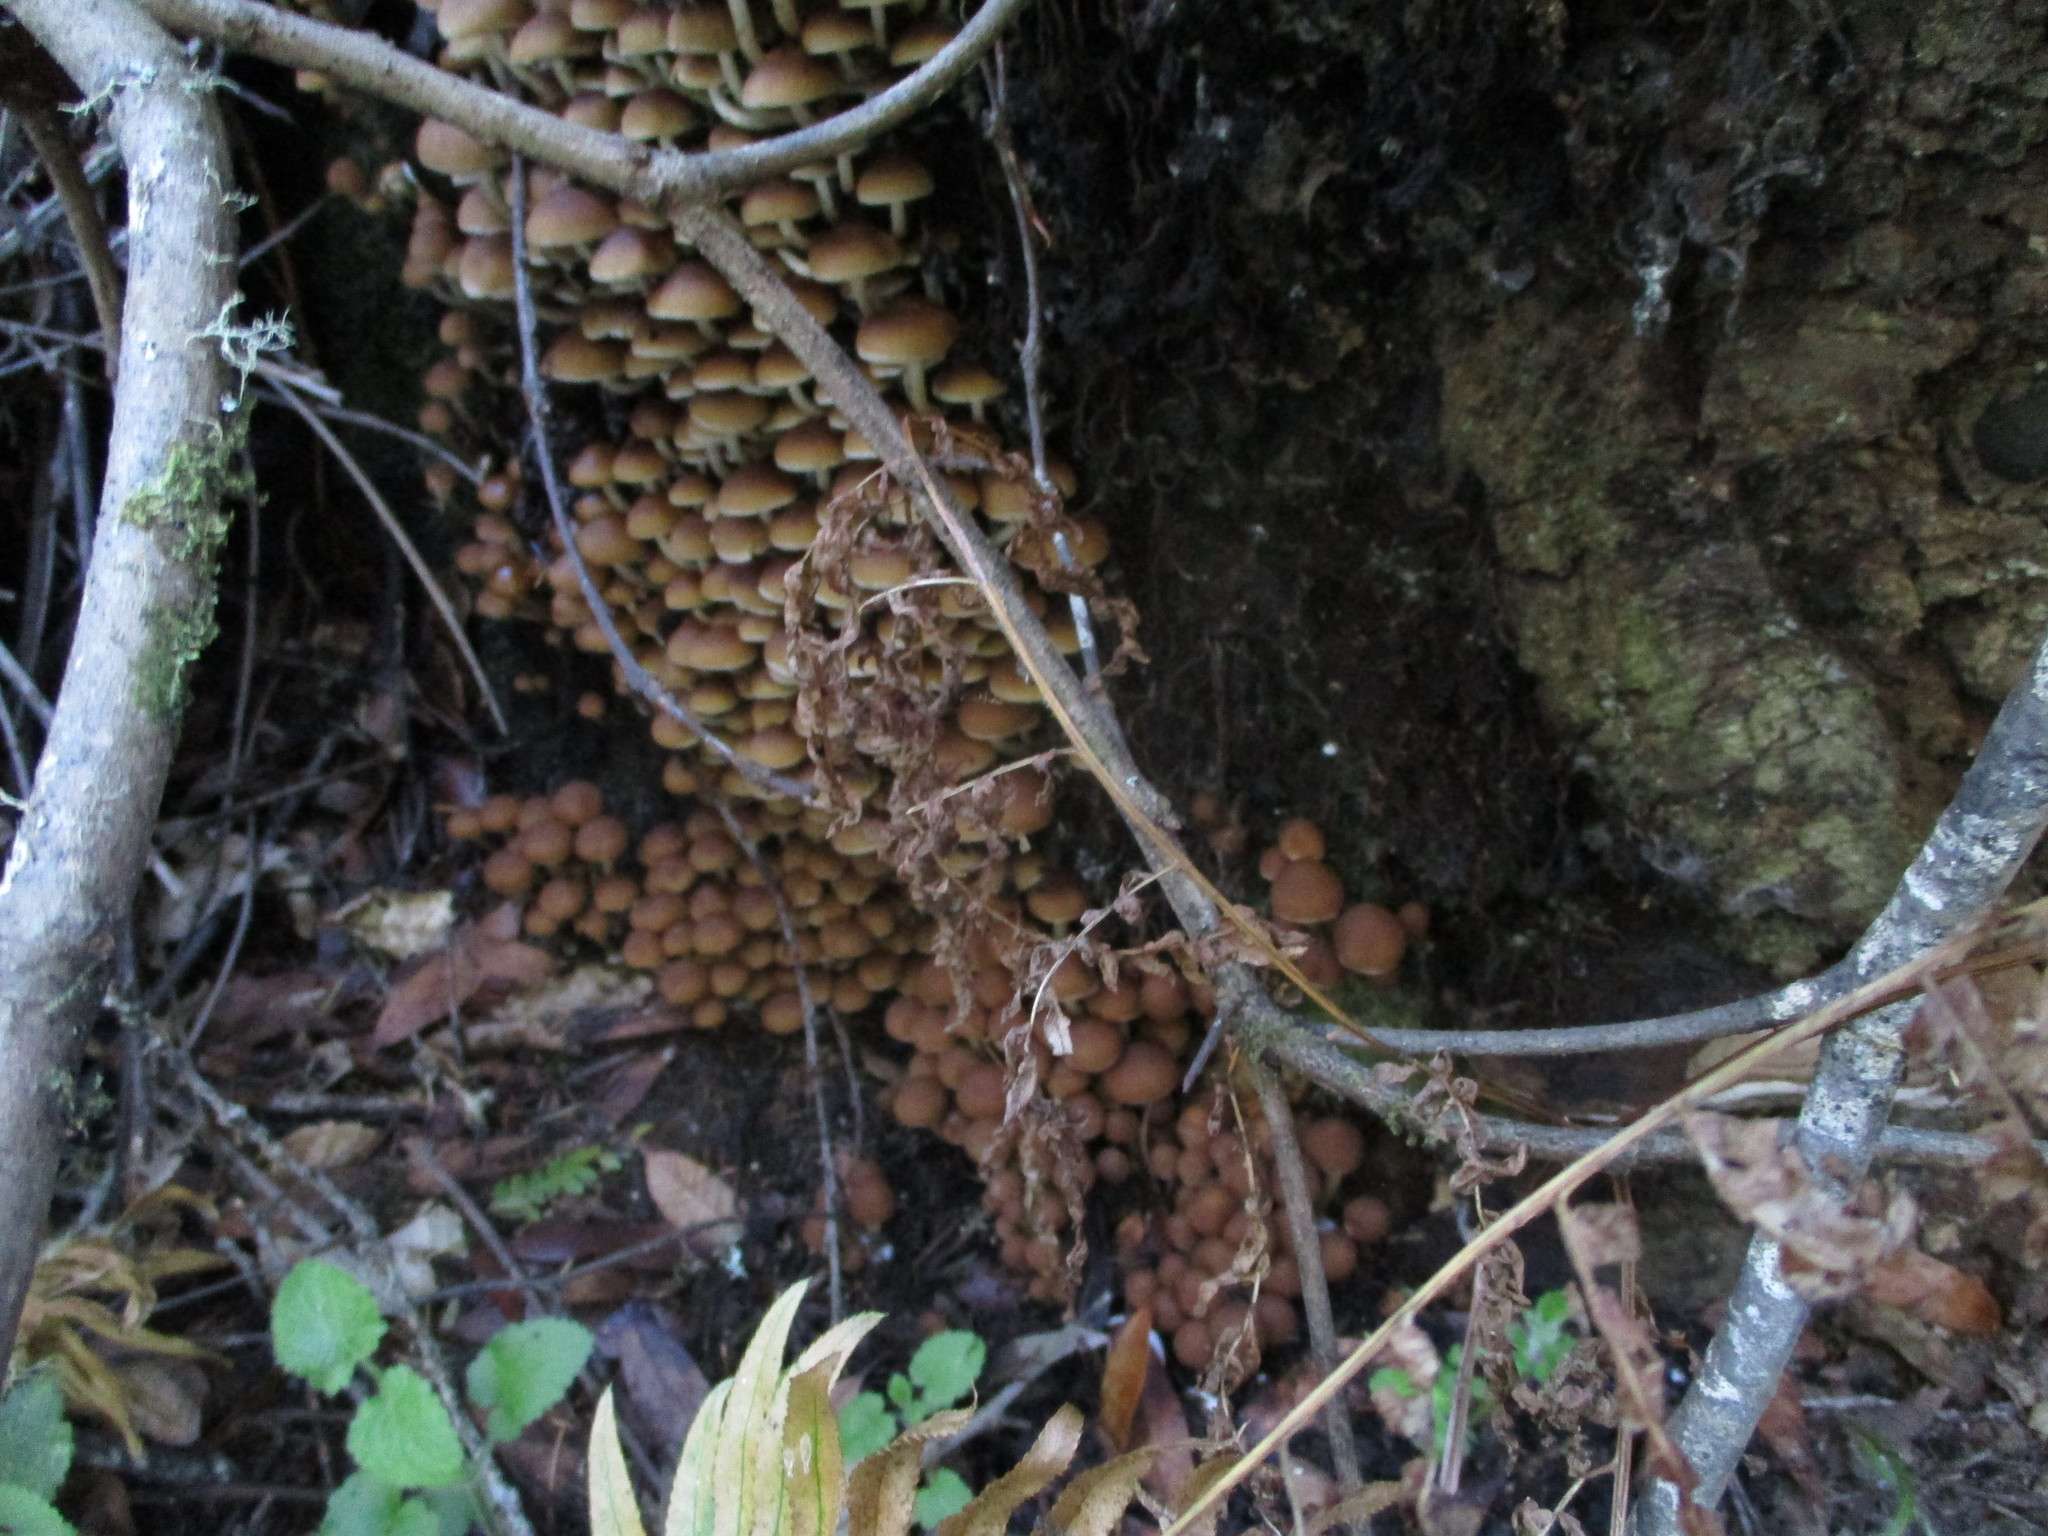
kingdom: Fungi
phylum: Basidiomycota
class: Agaricomycetes
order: Agaricales
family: Psathyrellaceae
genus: Psathyrella
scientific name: Psathyrella piluliformis
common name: Common stump brittlestem
